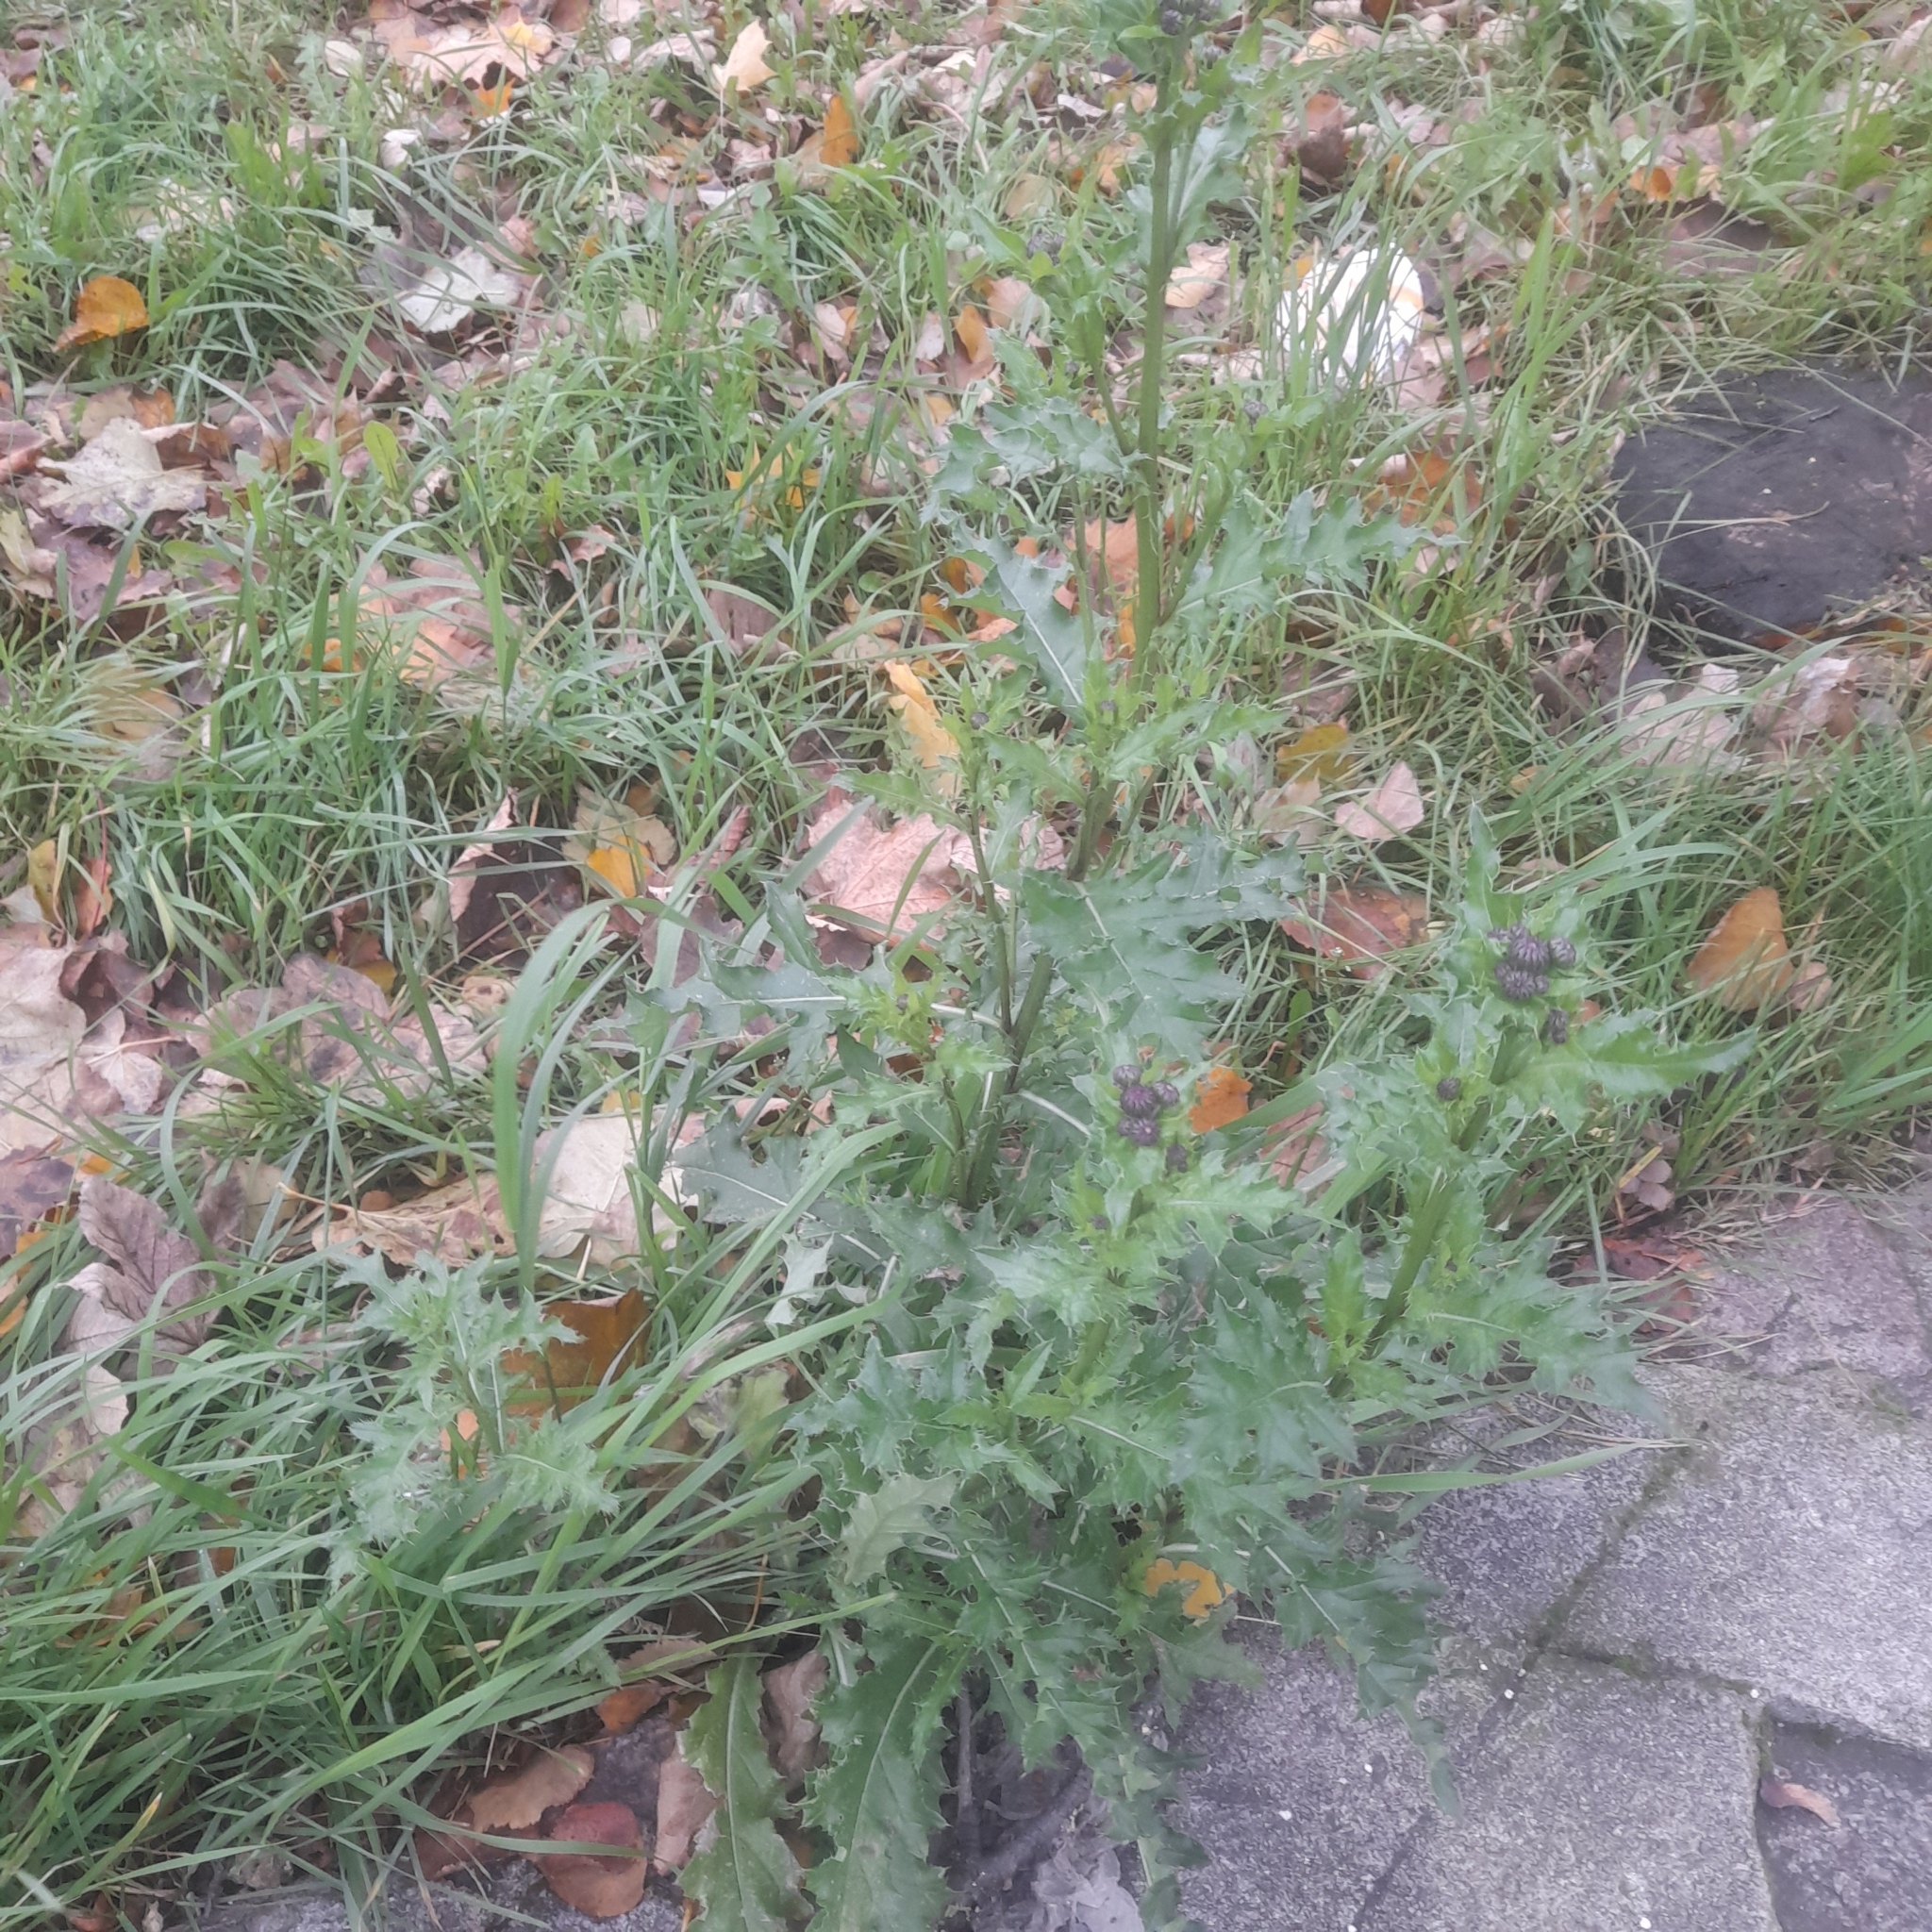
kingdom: Plantae
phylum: Tracheophyta
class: Magnoliopsida
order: Asterales
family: Asteraceae
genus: Cirsium
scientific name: Cirsium arvense
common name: Creeping thistle
